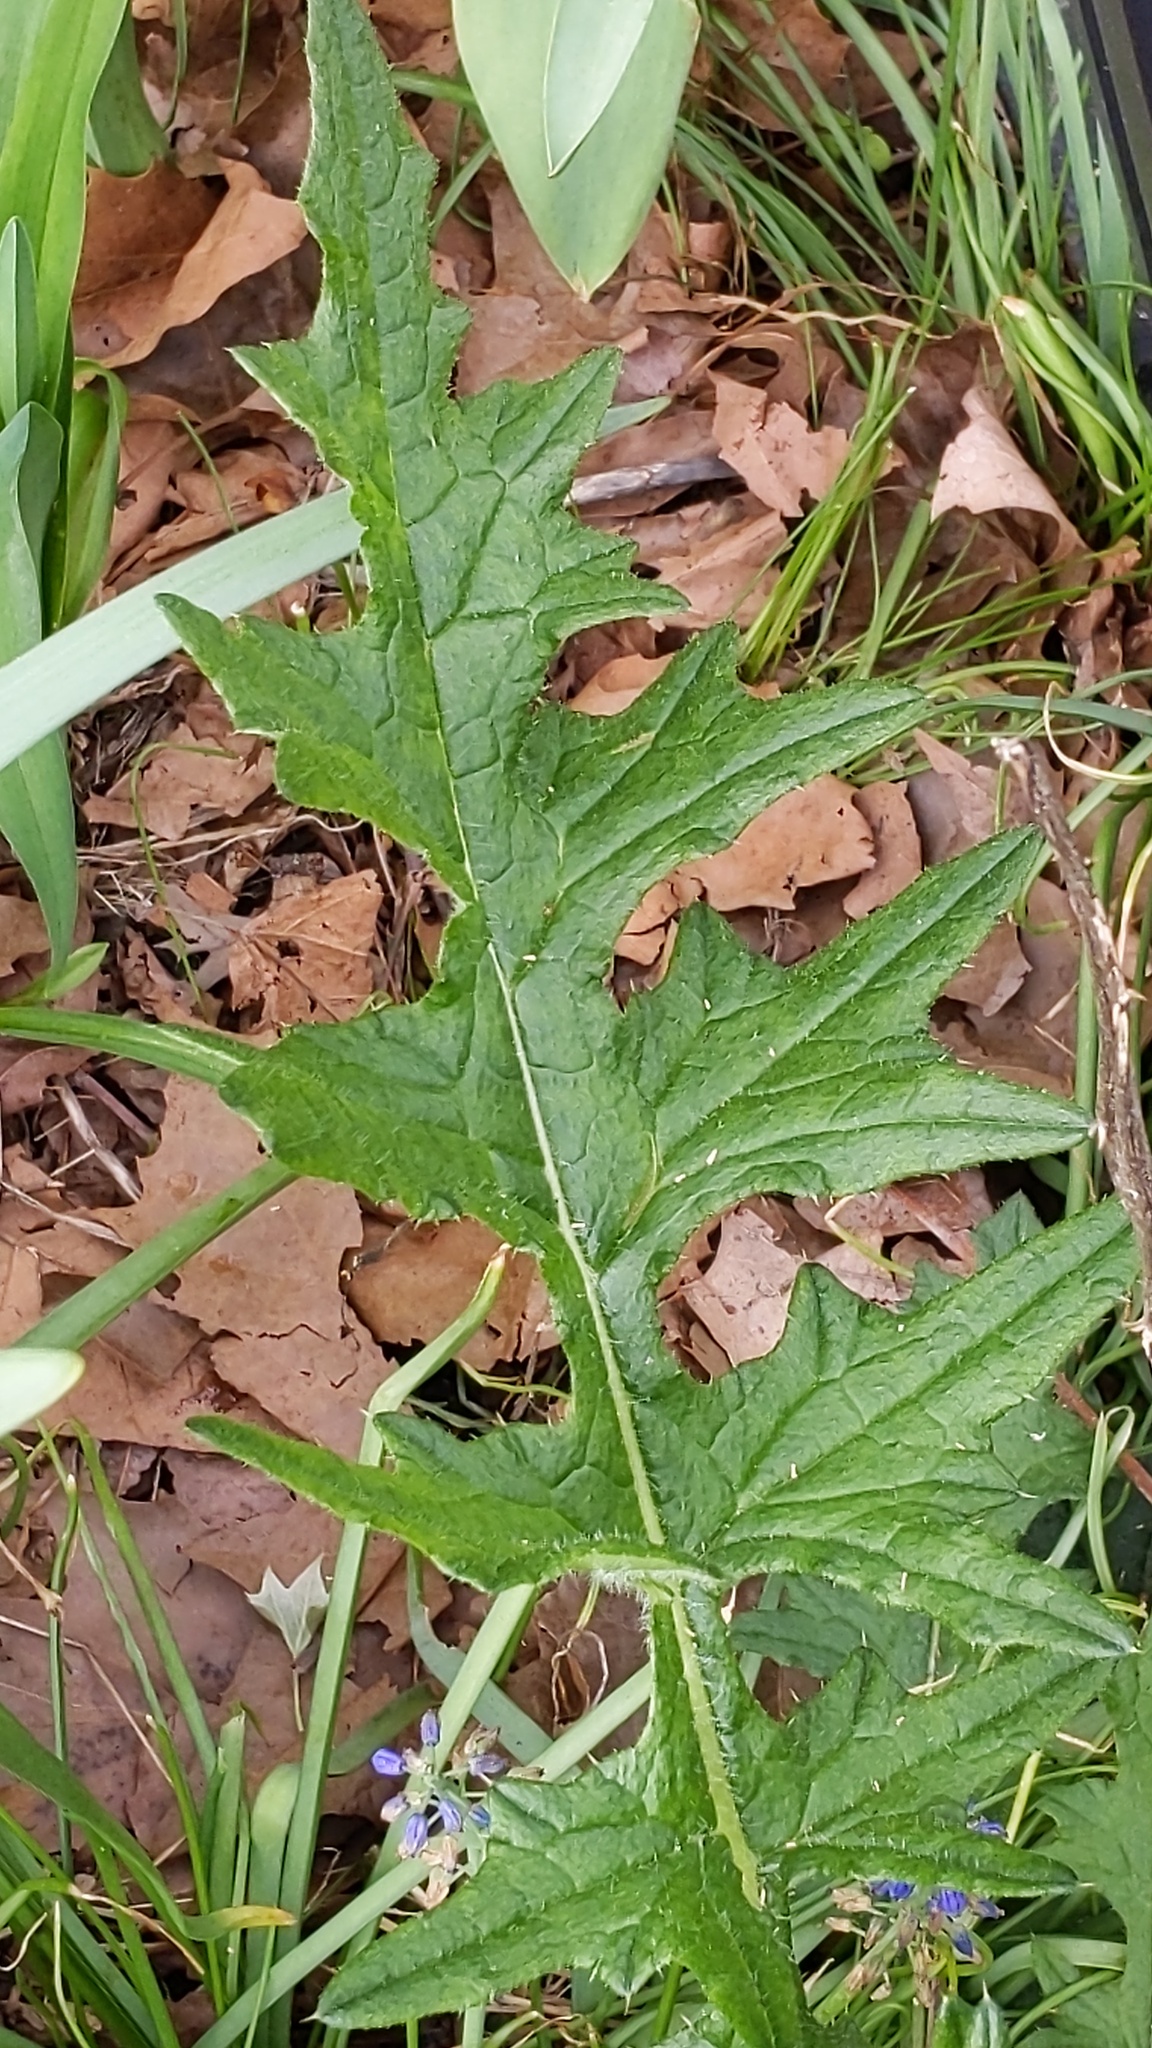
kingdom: Plantae
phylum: Tracheophyta
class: Magnoliopsida
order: Asterales
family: Asteraceae
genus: Cirsium
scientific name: Cirsium vulgare
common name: Bull thistle
